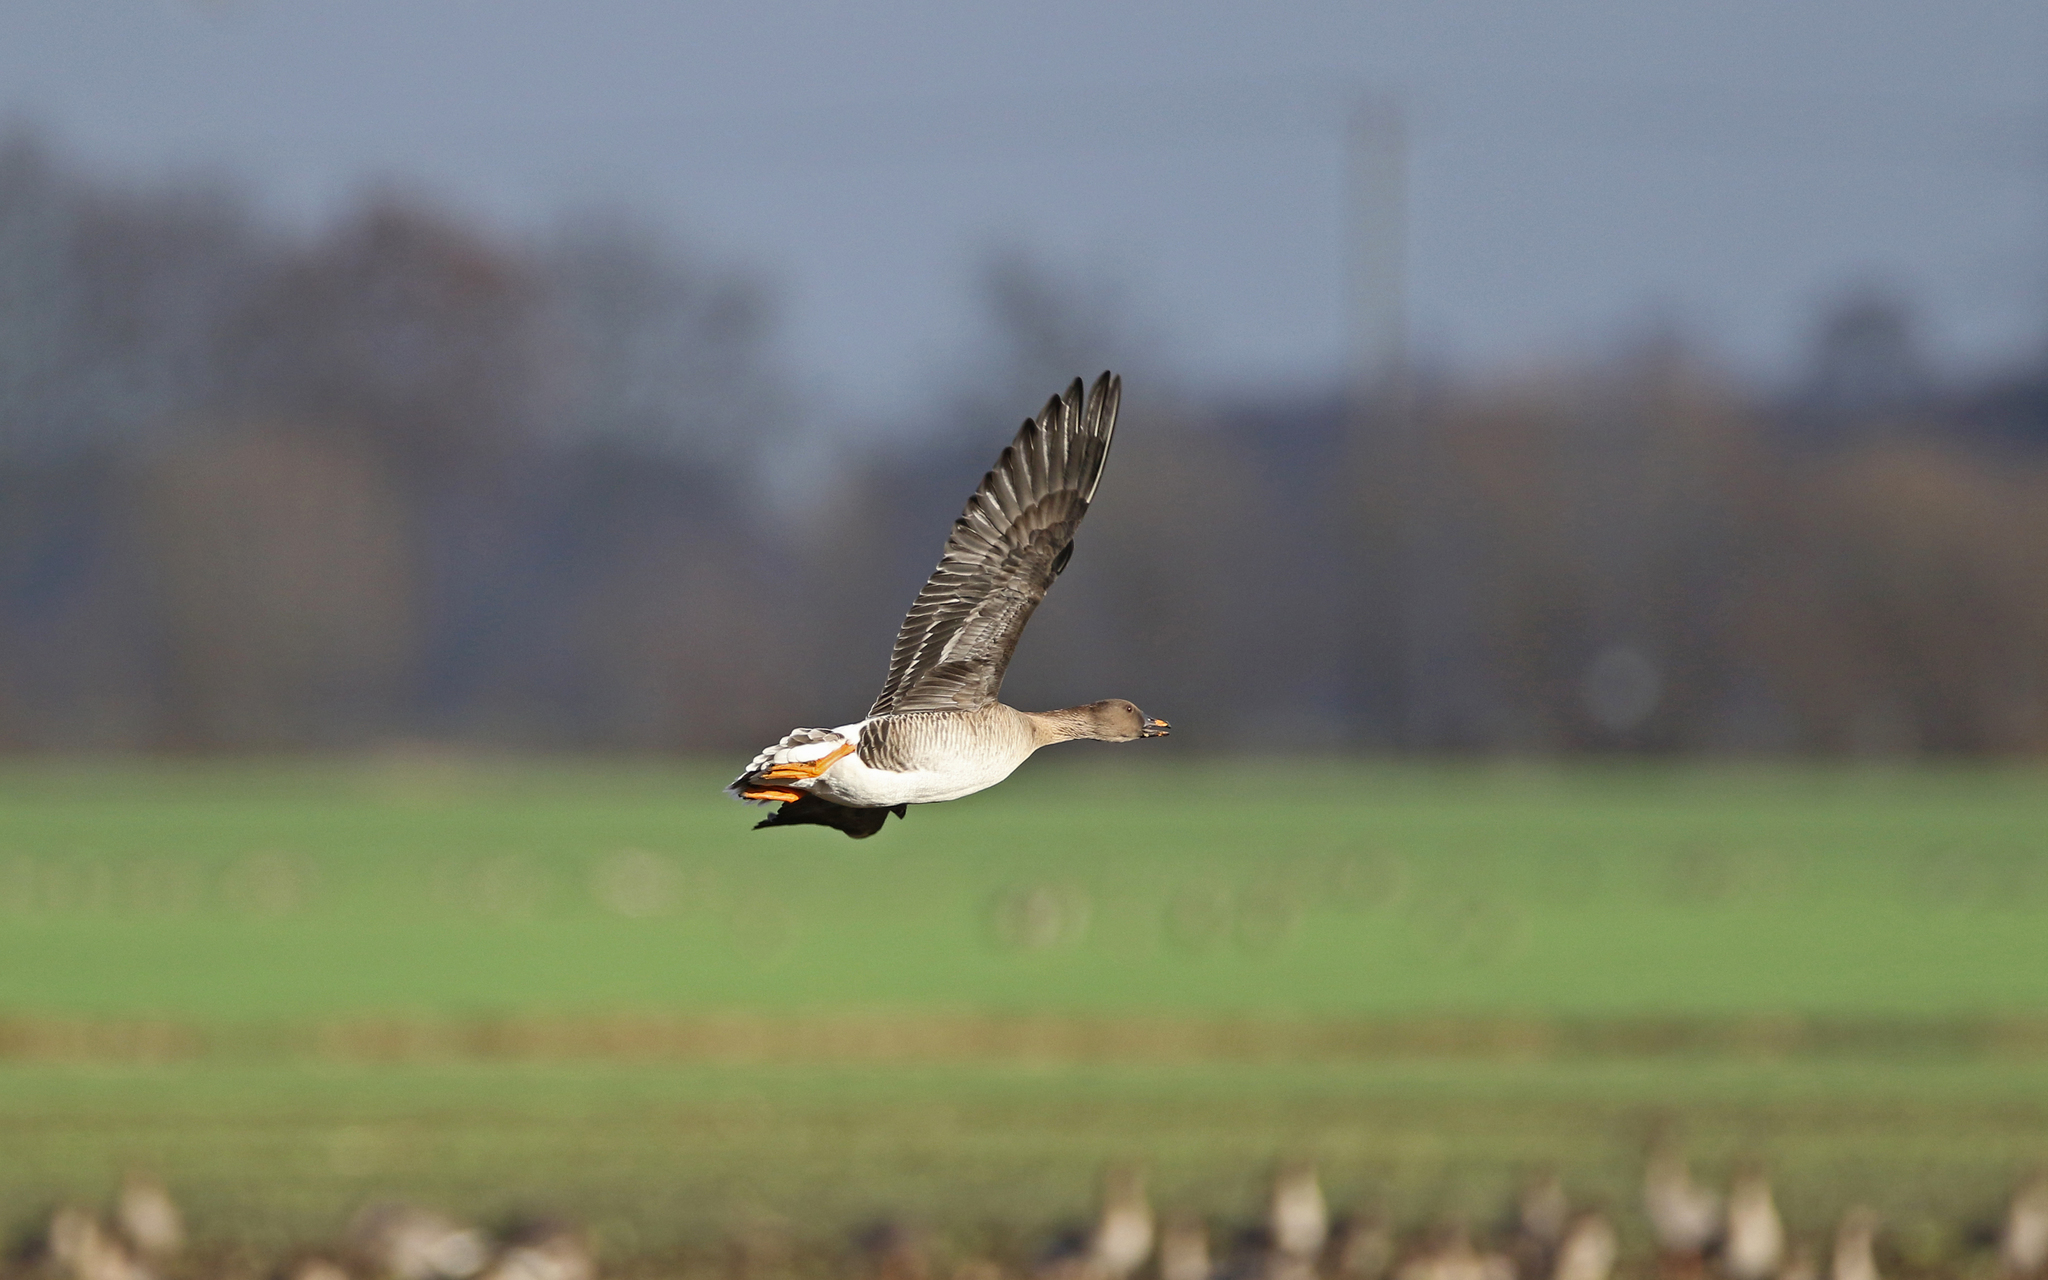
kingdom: Animalia
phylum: Chordata
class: Aves
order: Anseriformes
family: Anatidae
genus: Anser
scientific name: Anser serrirostris
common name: Tundra bean goose
